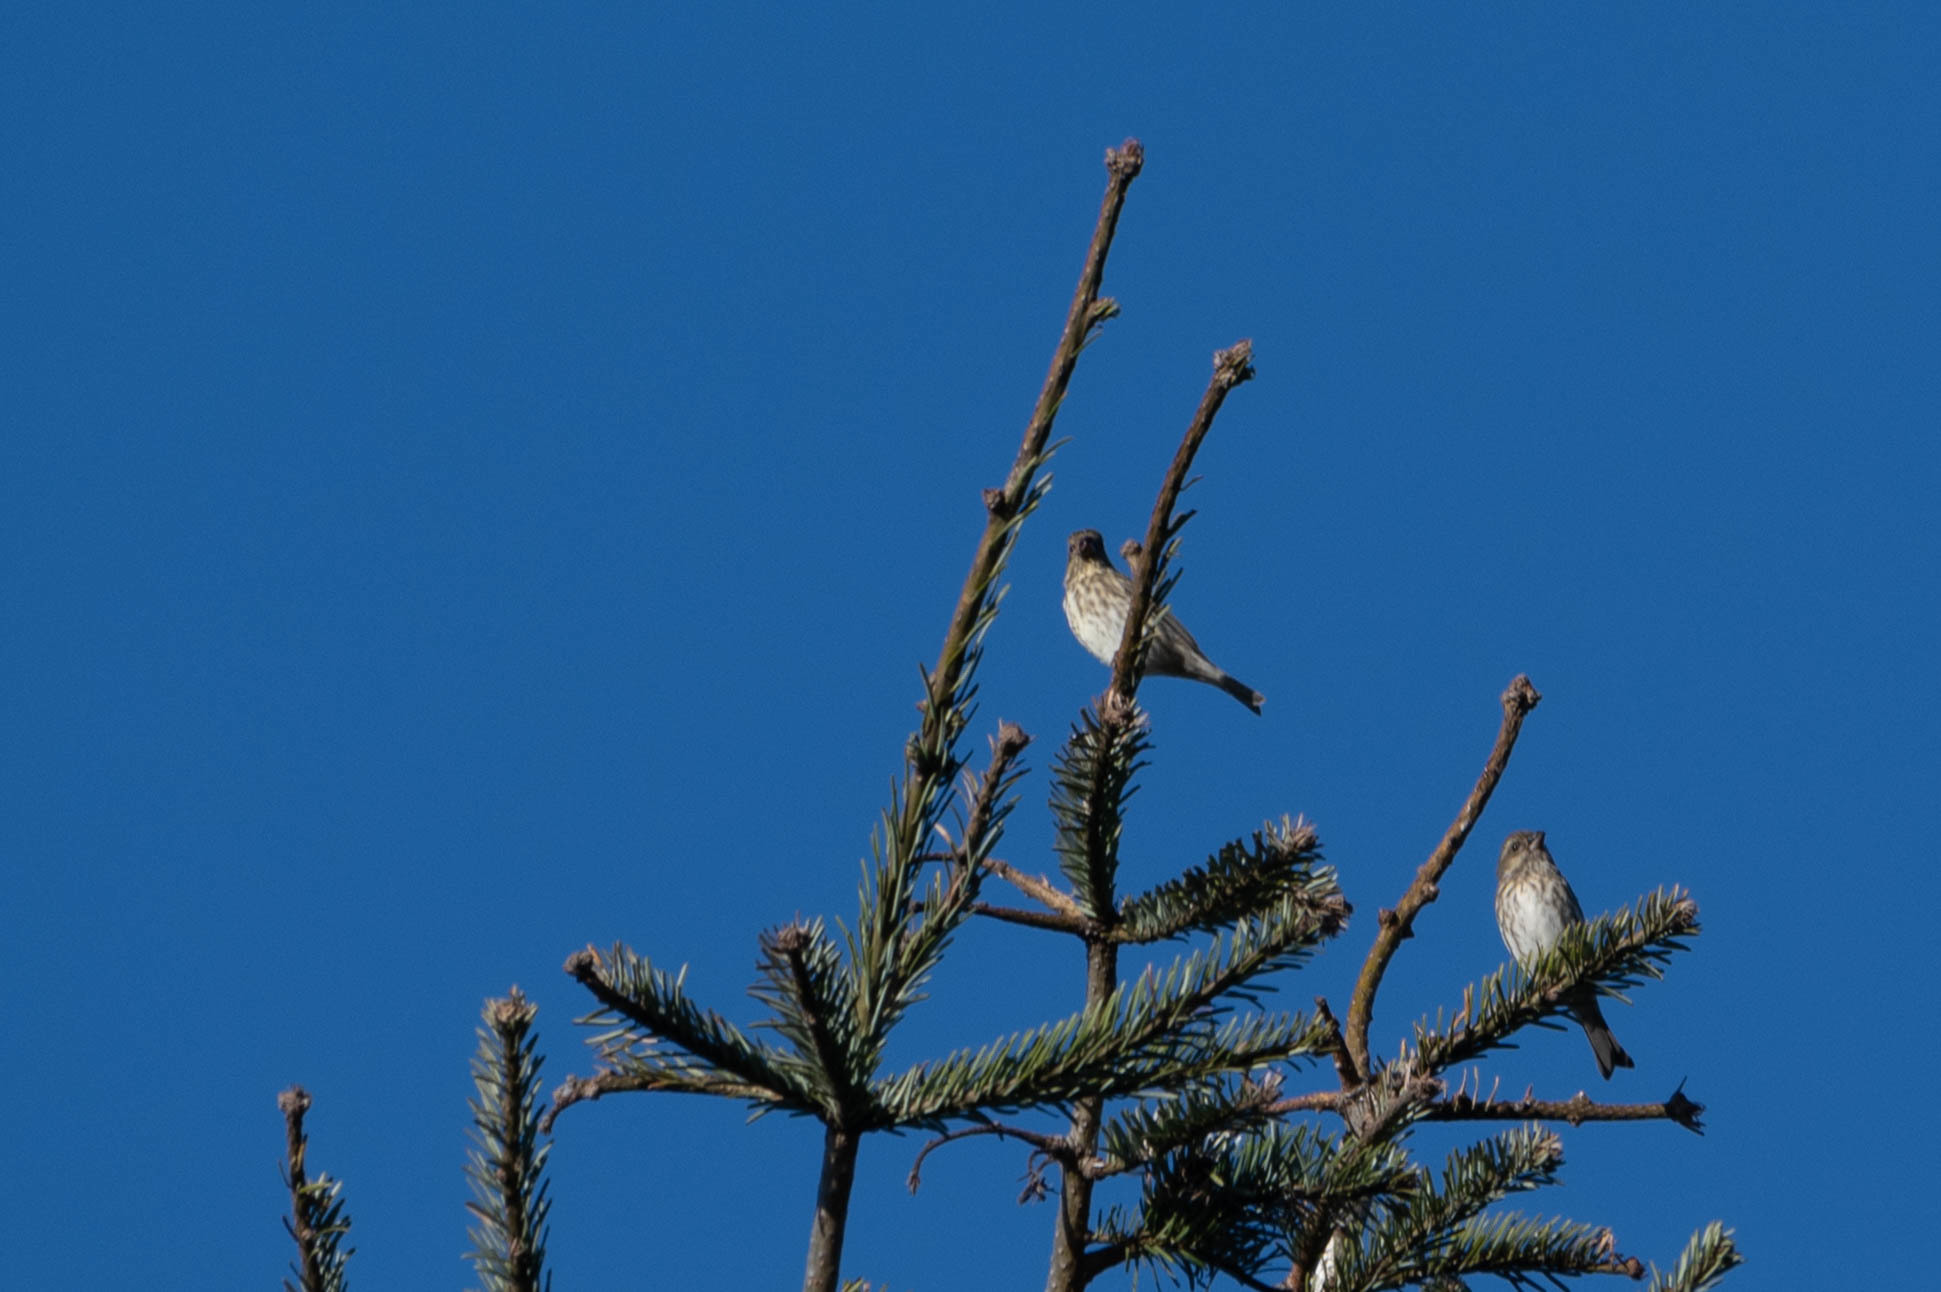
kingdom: Animalia
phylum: Chordata
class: Aves
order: Passeriformes
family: Fringillidae
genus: Haemorhous
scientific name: Haemorhous purpureus
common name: Purple finch
